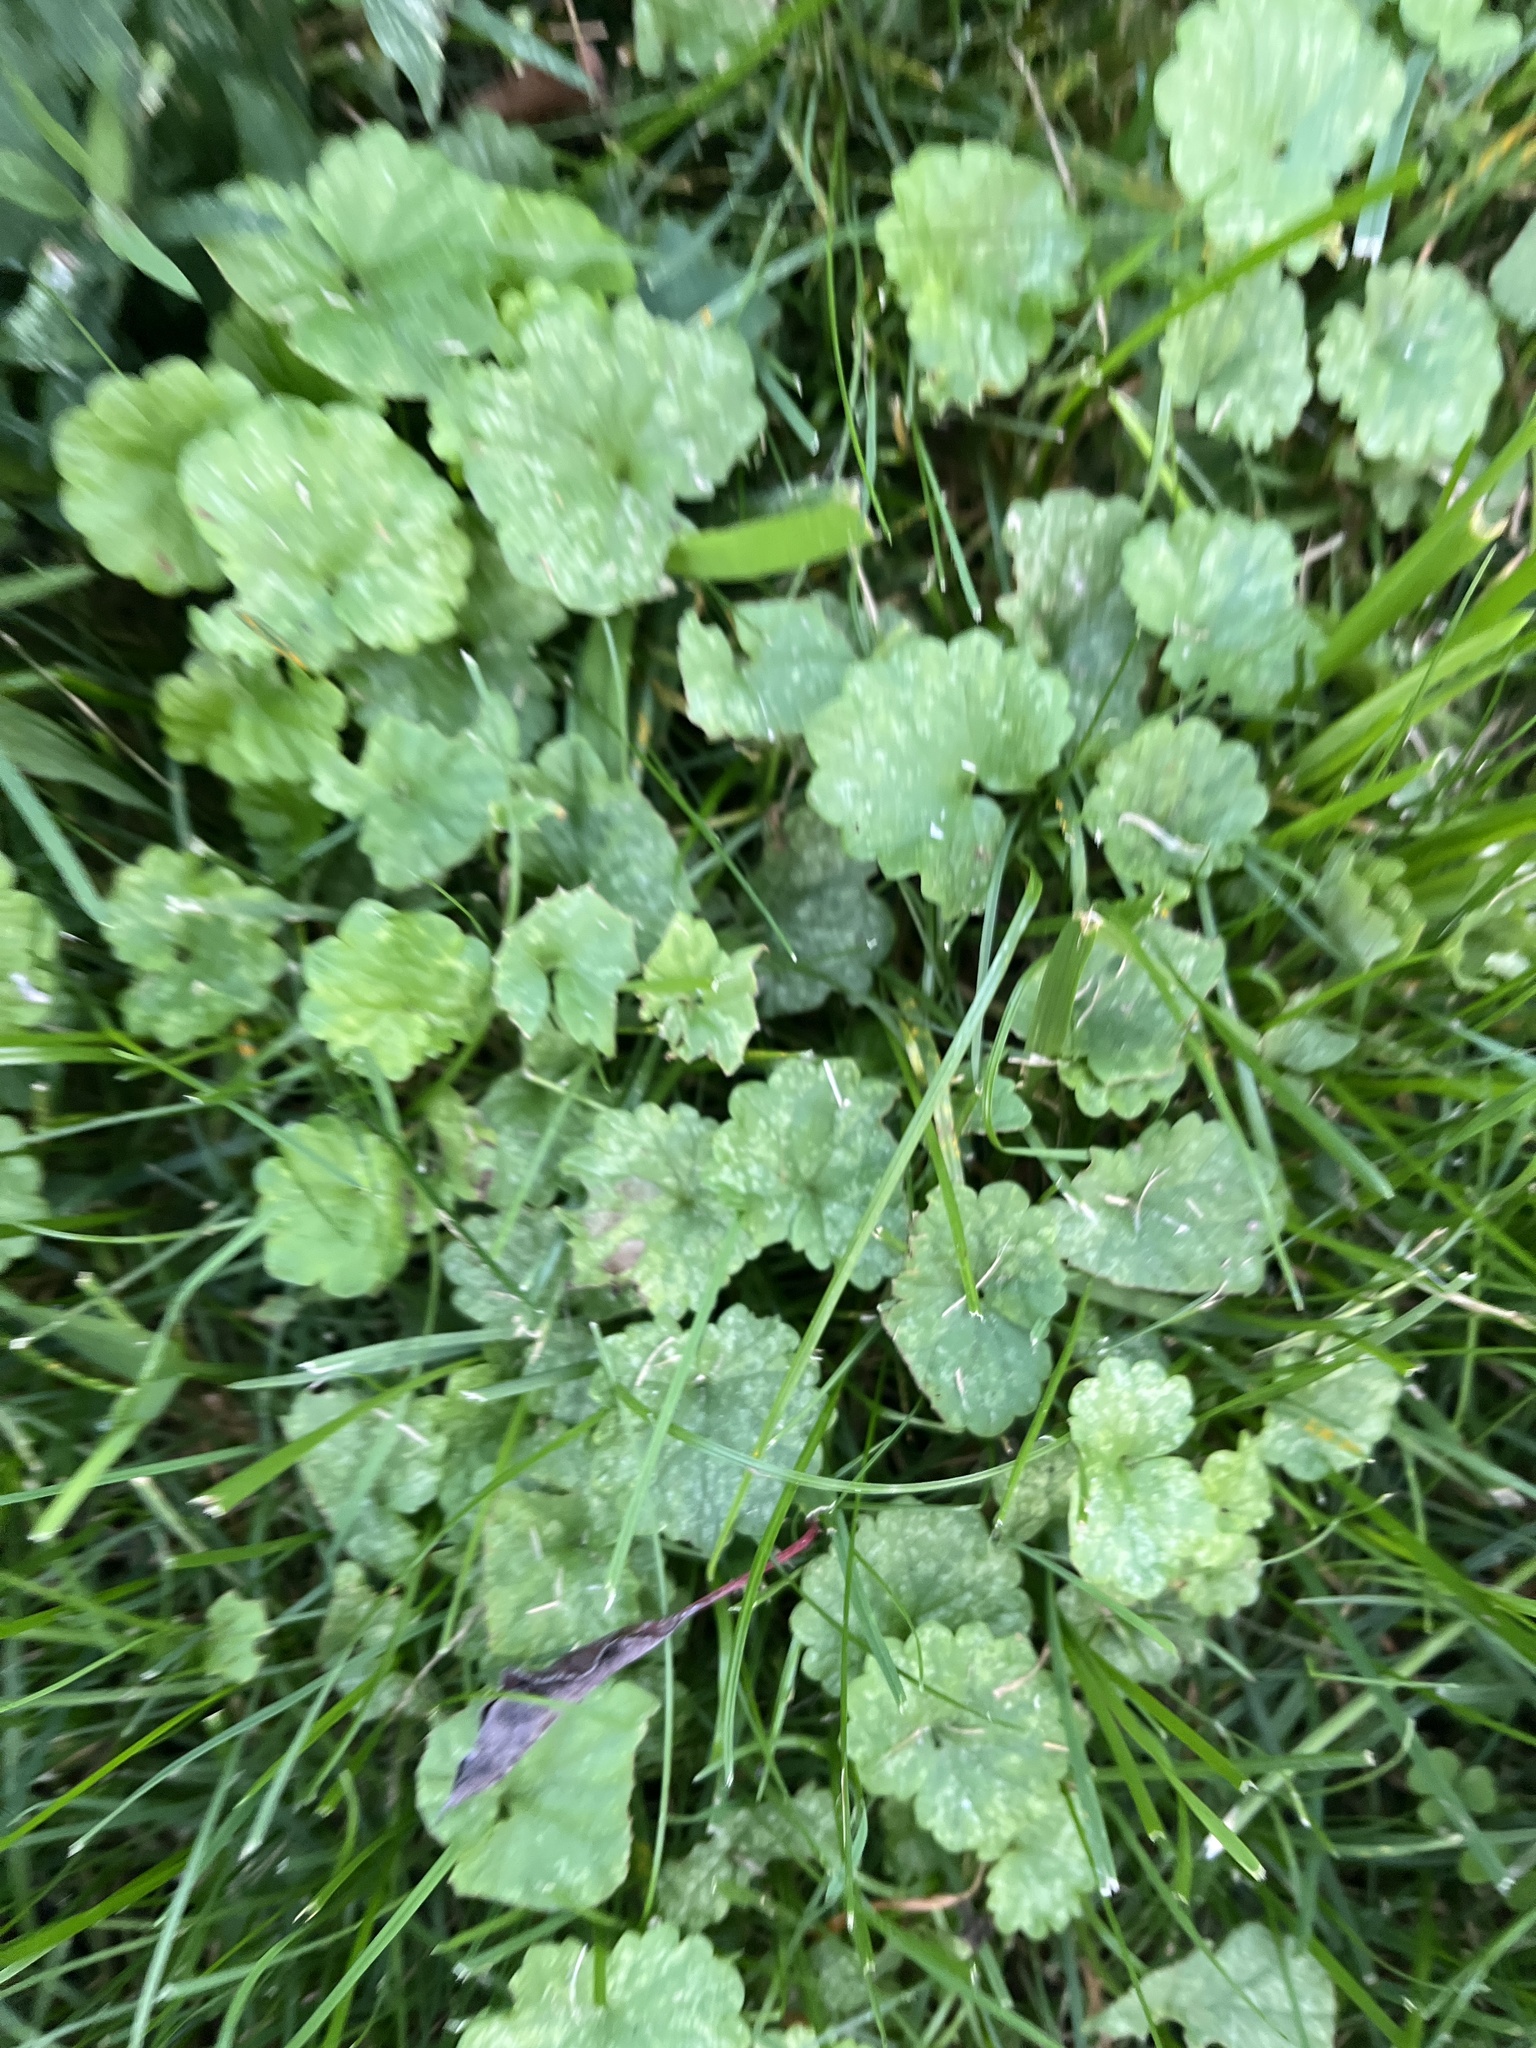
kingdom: Plantae
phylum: Tracheophyta
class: Magnoliopsida
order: Lamiales
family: Lamiaceae
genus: Glechoma
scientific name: Glechoma hederacea
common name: Ground ivy
